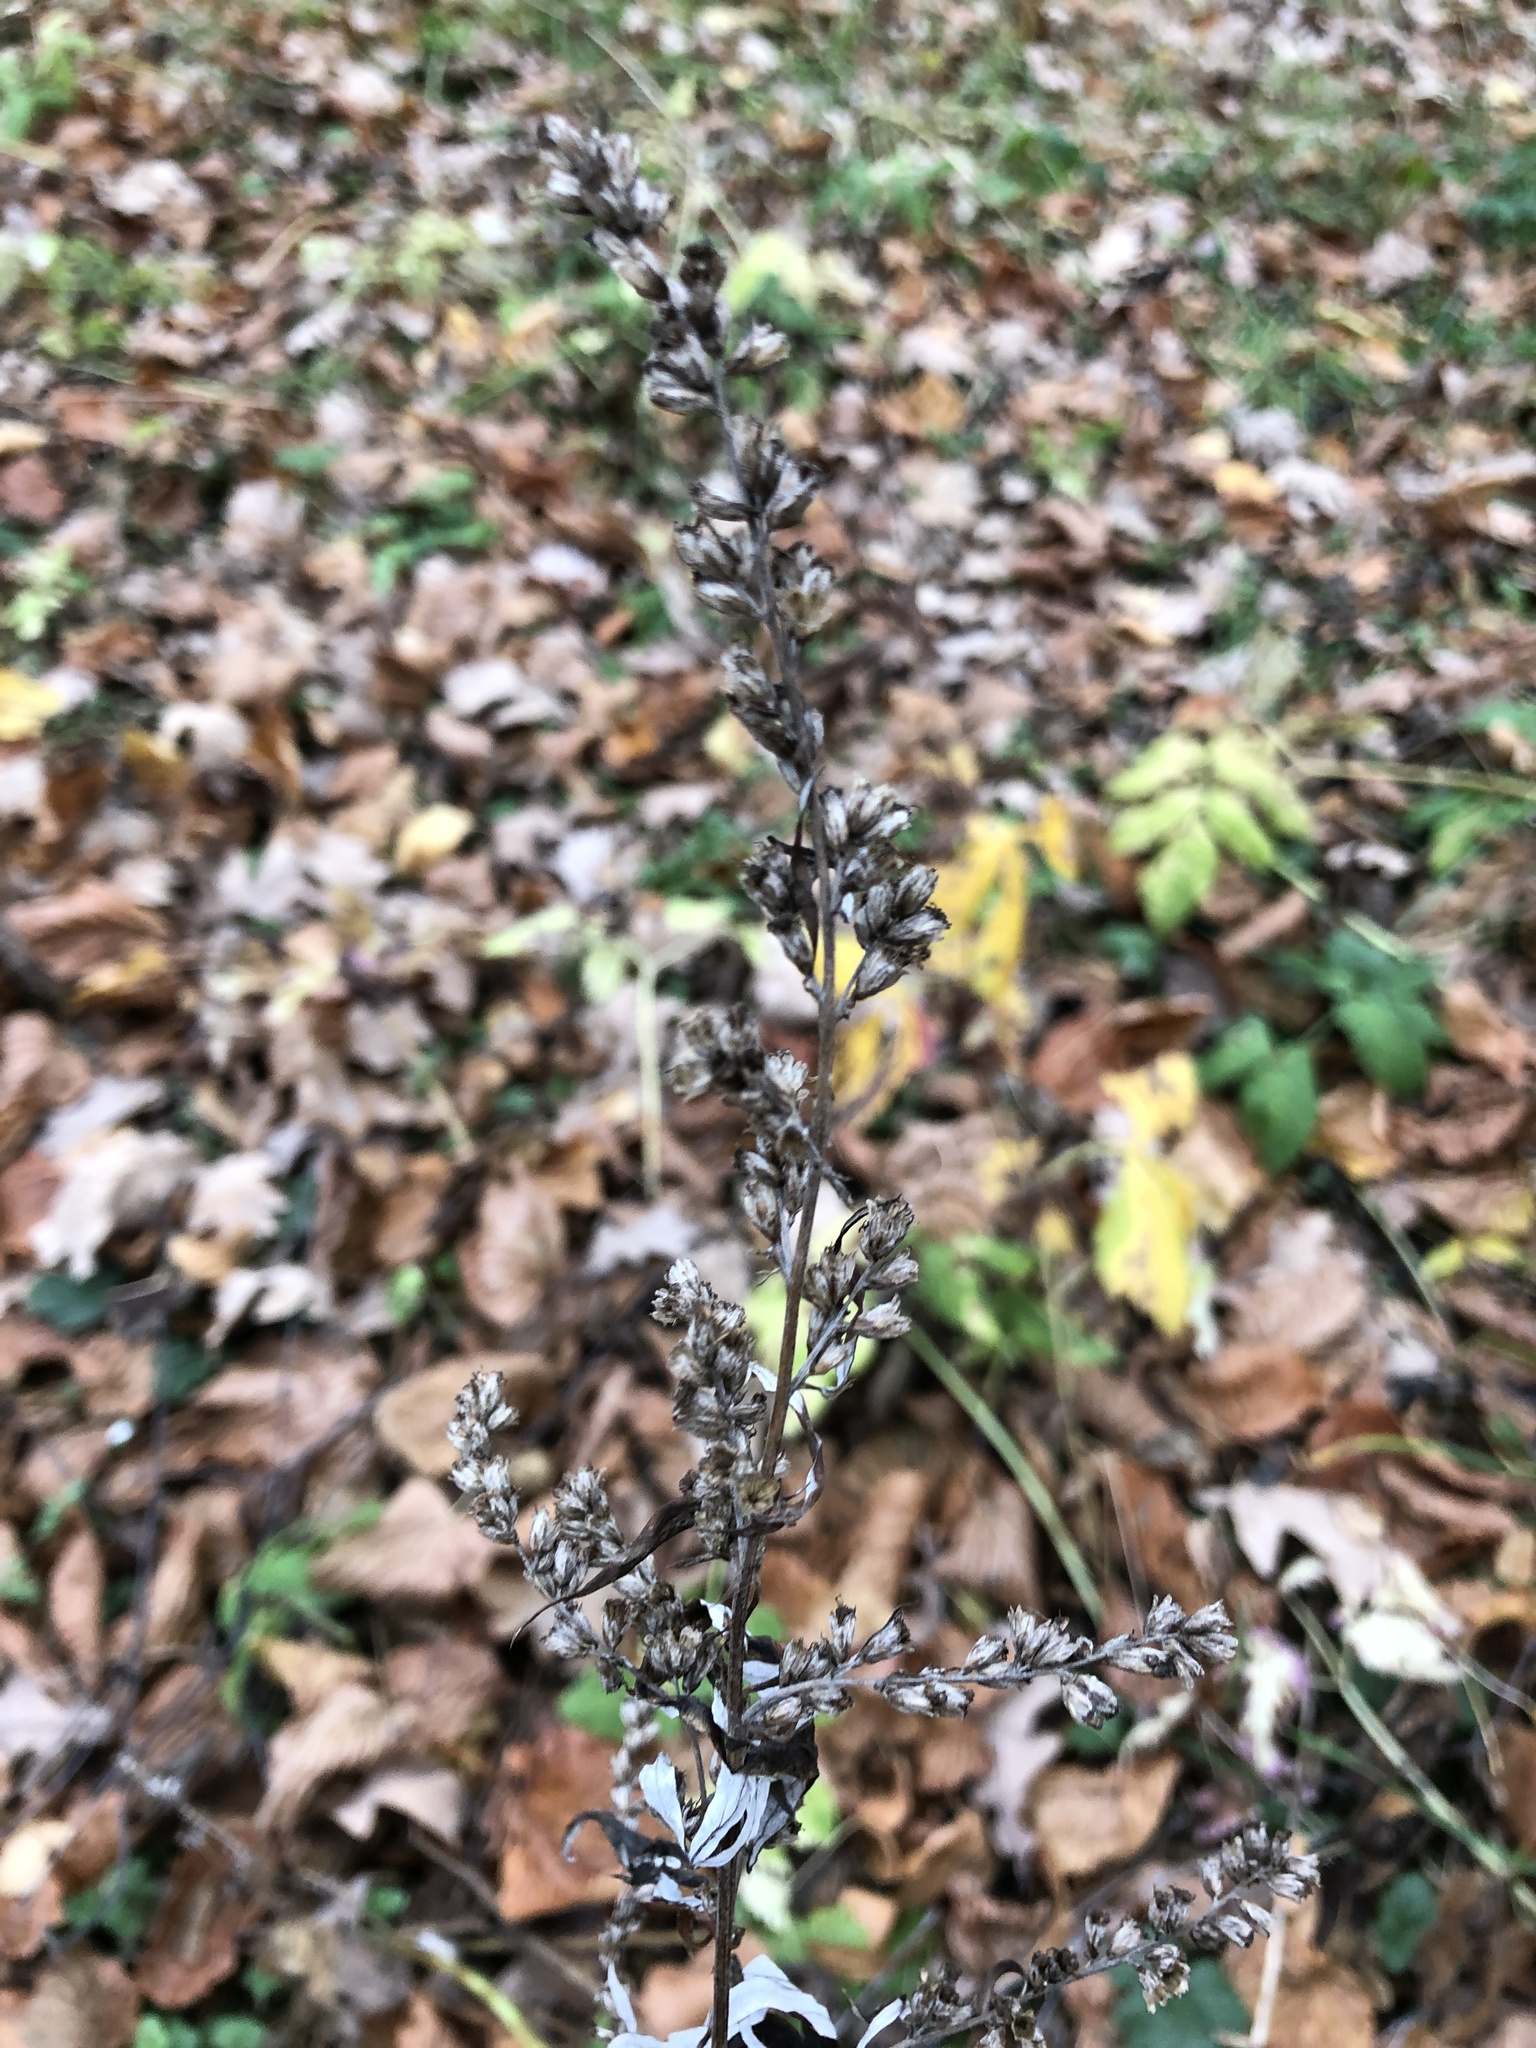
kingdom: Plantae
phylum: Tracheophyta
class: Magnoliopsida
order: Asterales
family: Asteraceae
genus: Artemisia
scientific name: Artemisia vulgaris
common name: Mugwort
